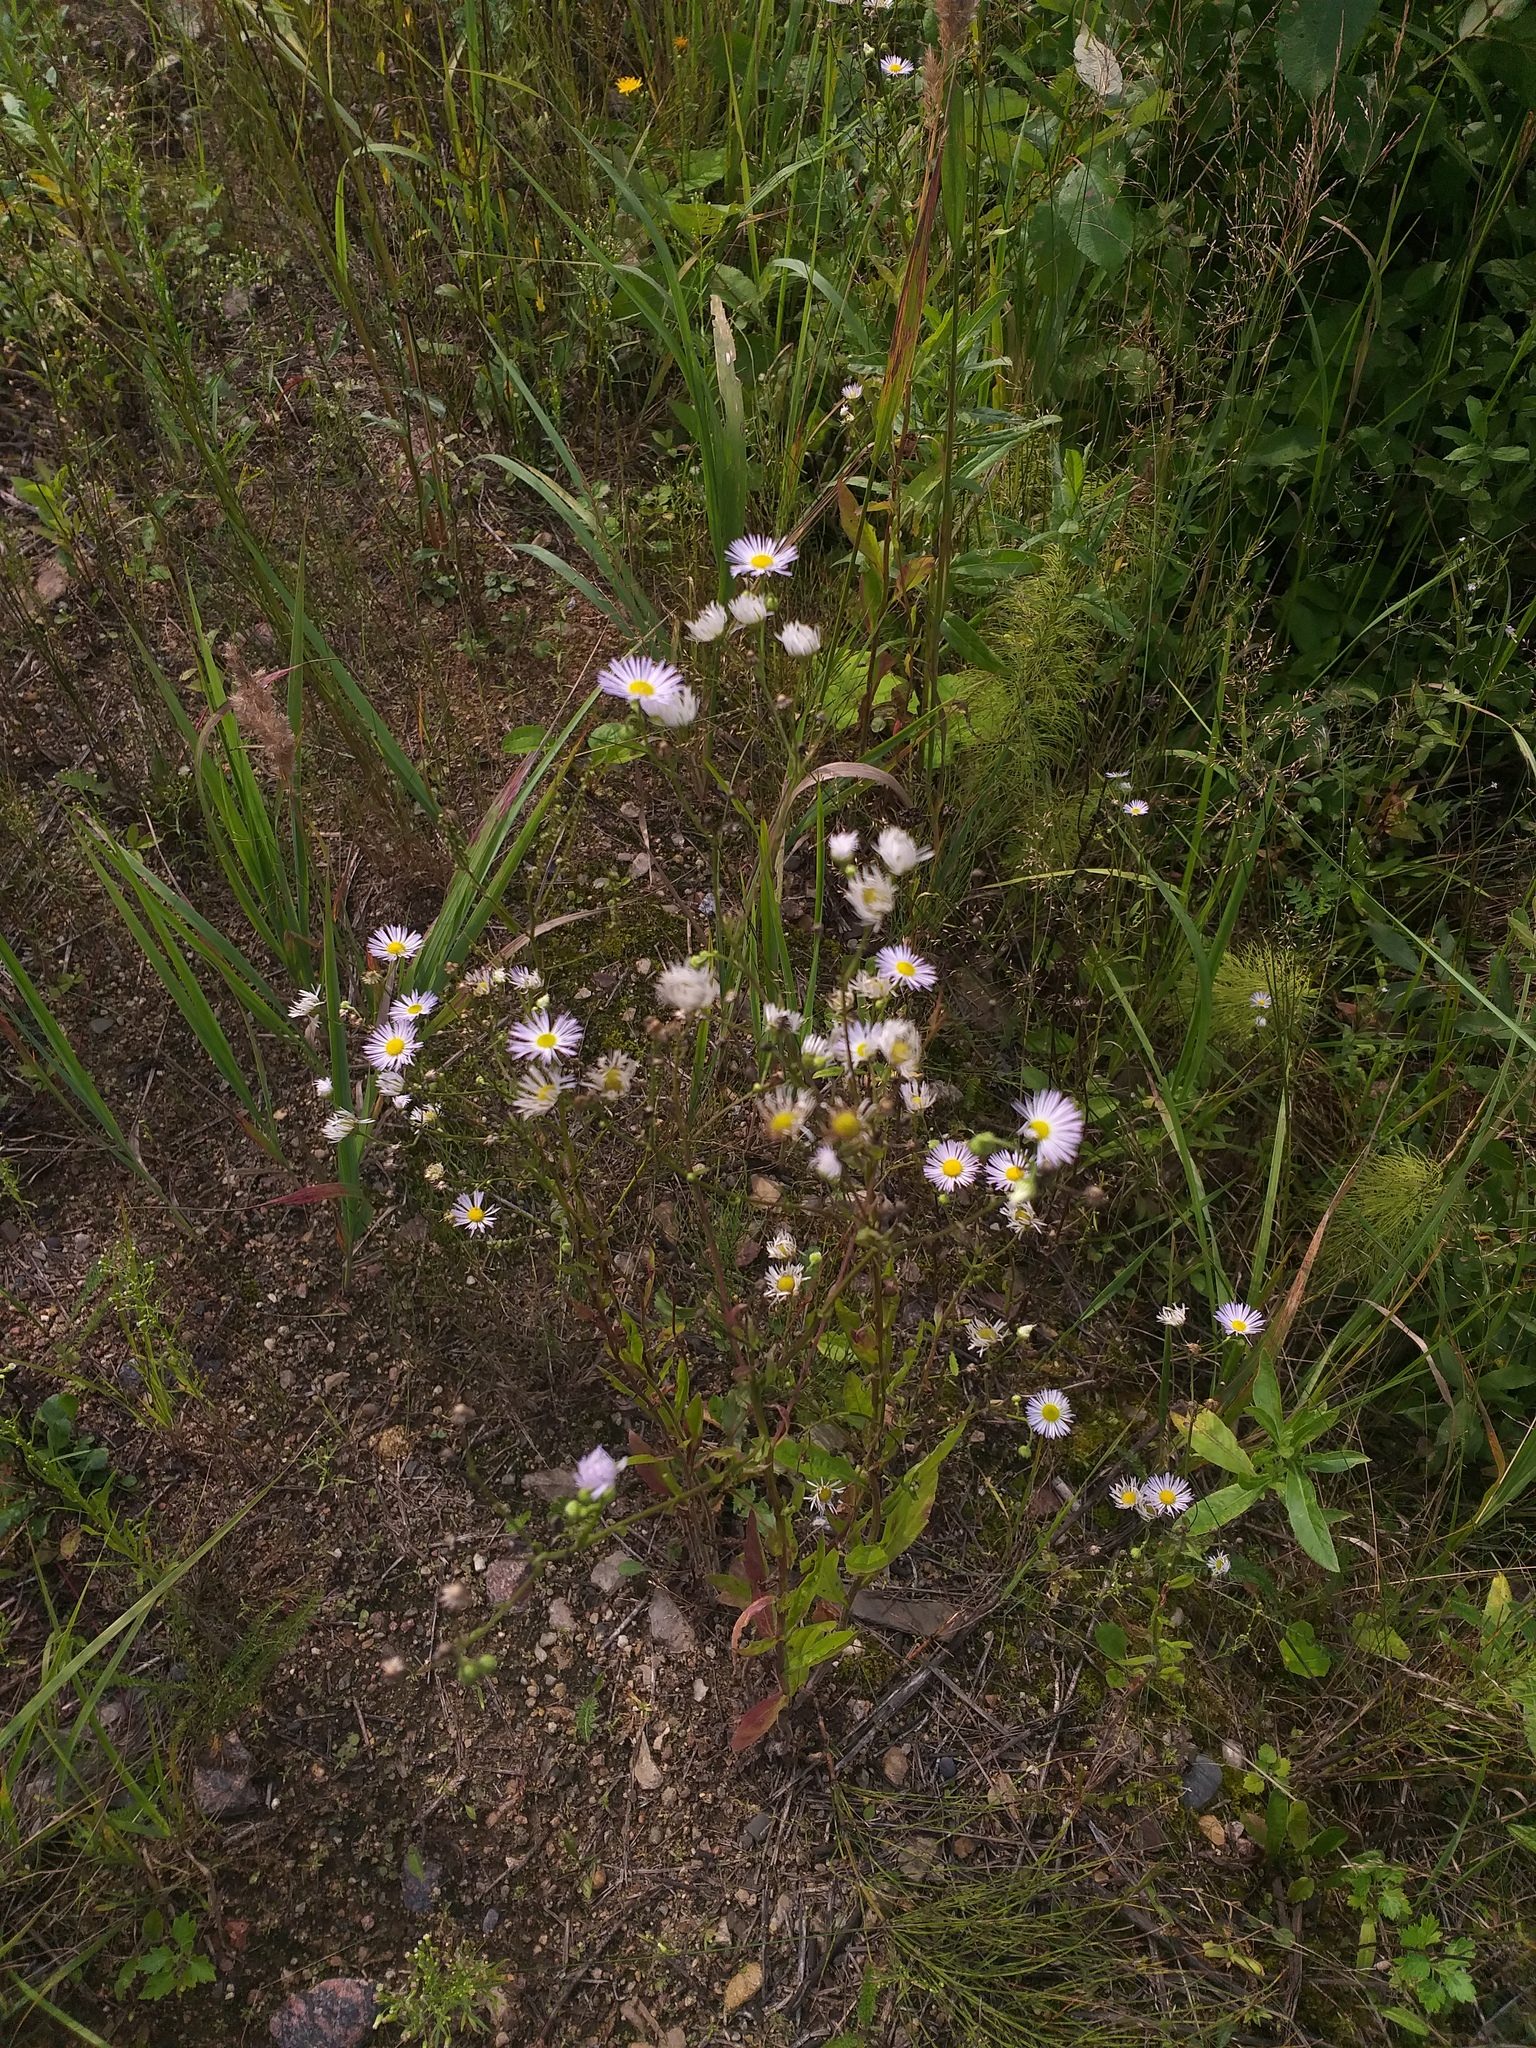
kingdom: Plantae
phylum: Tracheophyta
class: Magnoliopsida
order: Asterales
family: Asteraceae
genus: Erigeron
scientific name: Erigeron annuus
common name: Tall fleabane
